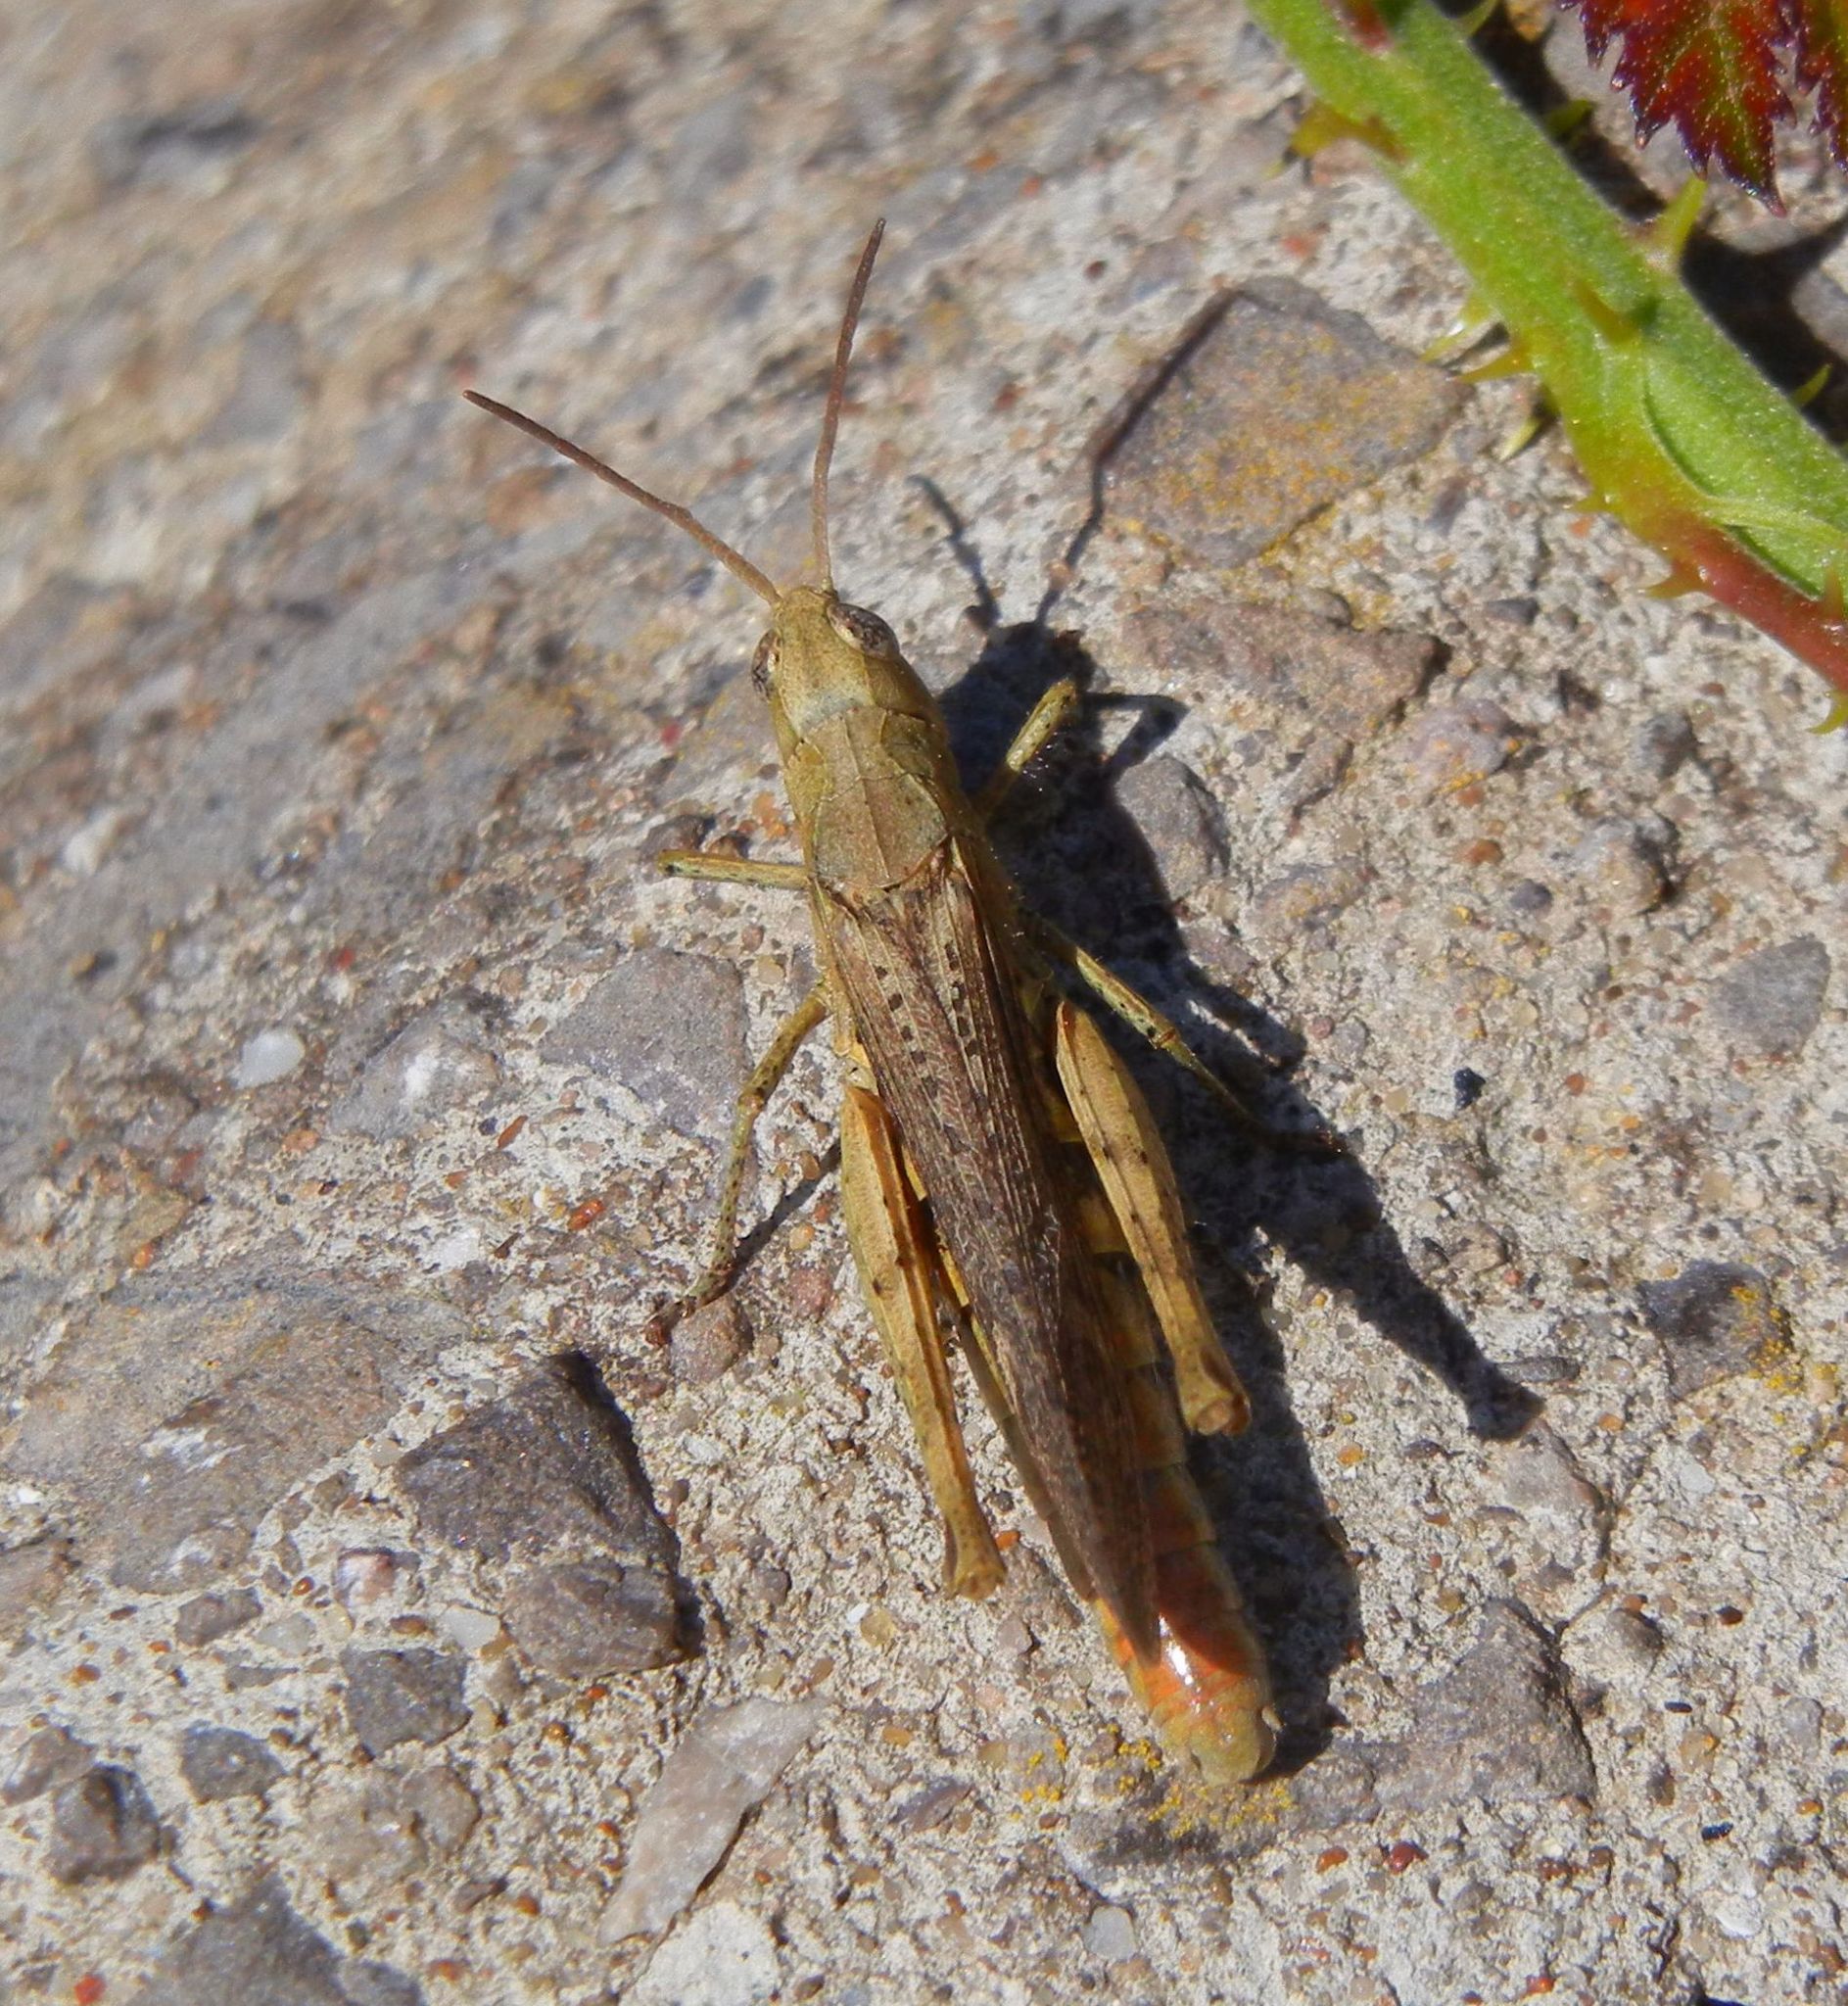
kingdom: Animalia
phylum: Arthropoda
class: Insecta
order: Orthoptera
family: Acrididae
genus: Chorthippus
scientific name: Chorthippus brunneus
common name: Field grasshopper
